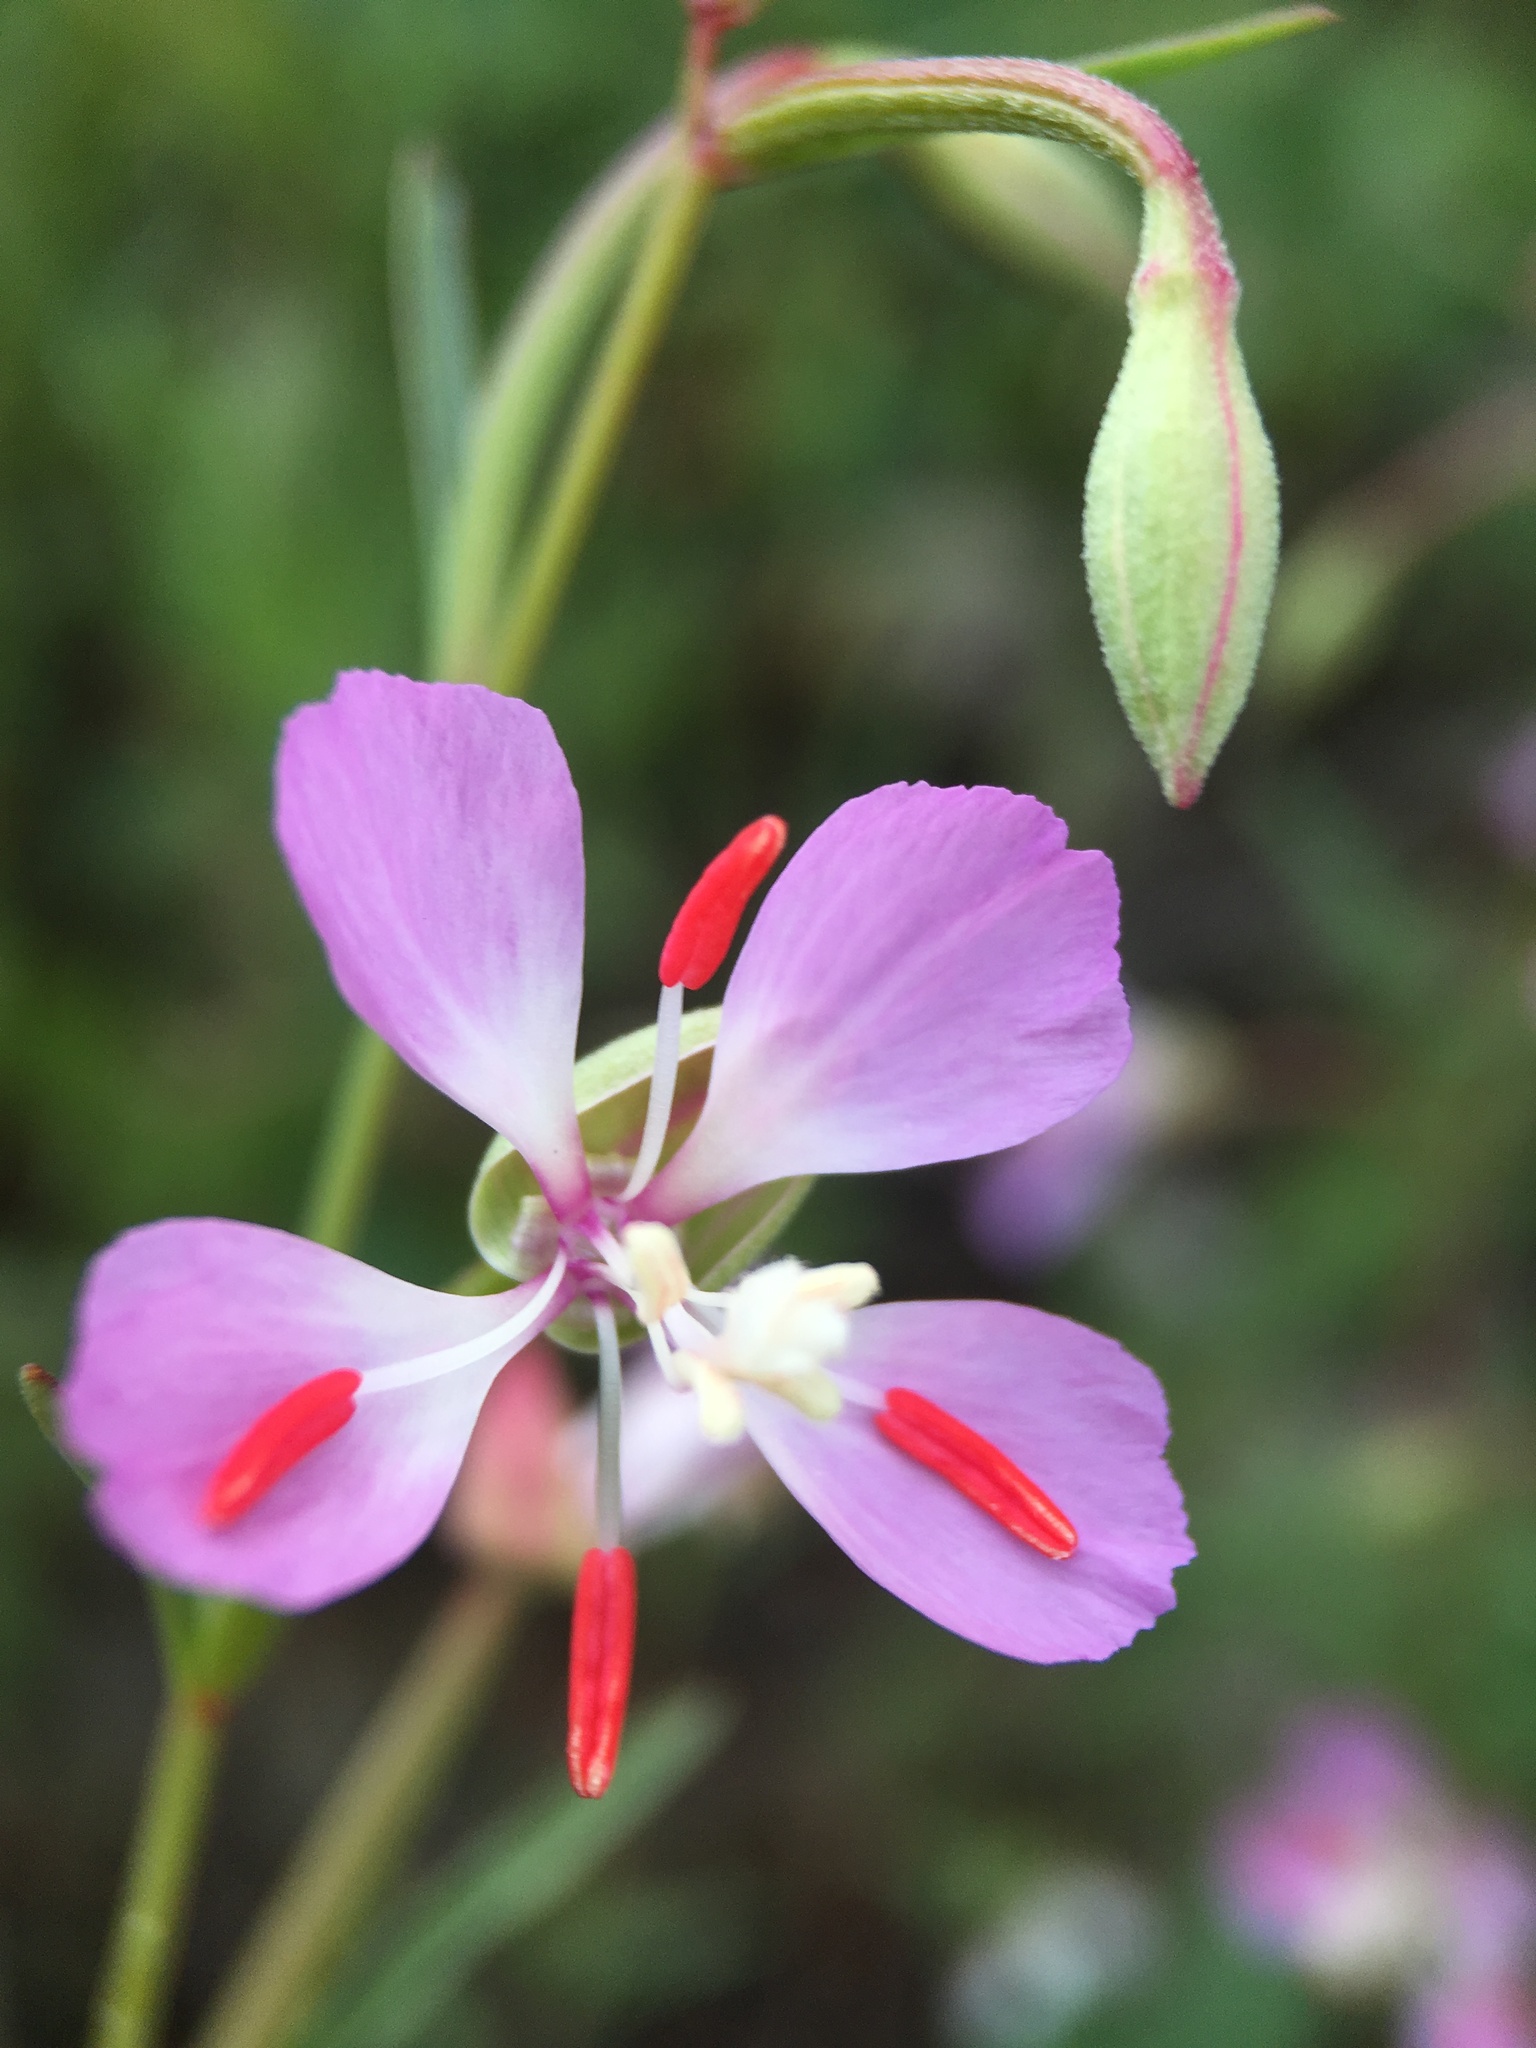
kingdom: Plantae
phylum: Tracheophyta
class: Magnoliopsida
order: Myrtales
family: Onagraceae
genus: Clarkia
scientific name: Clarkia delicata
